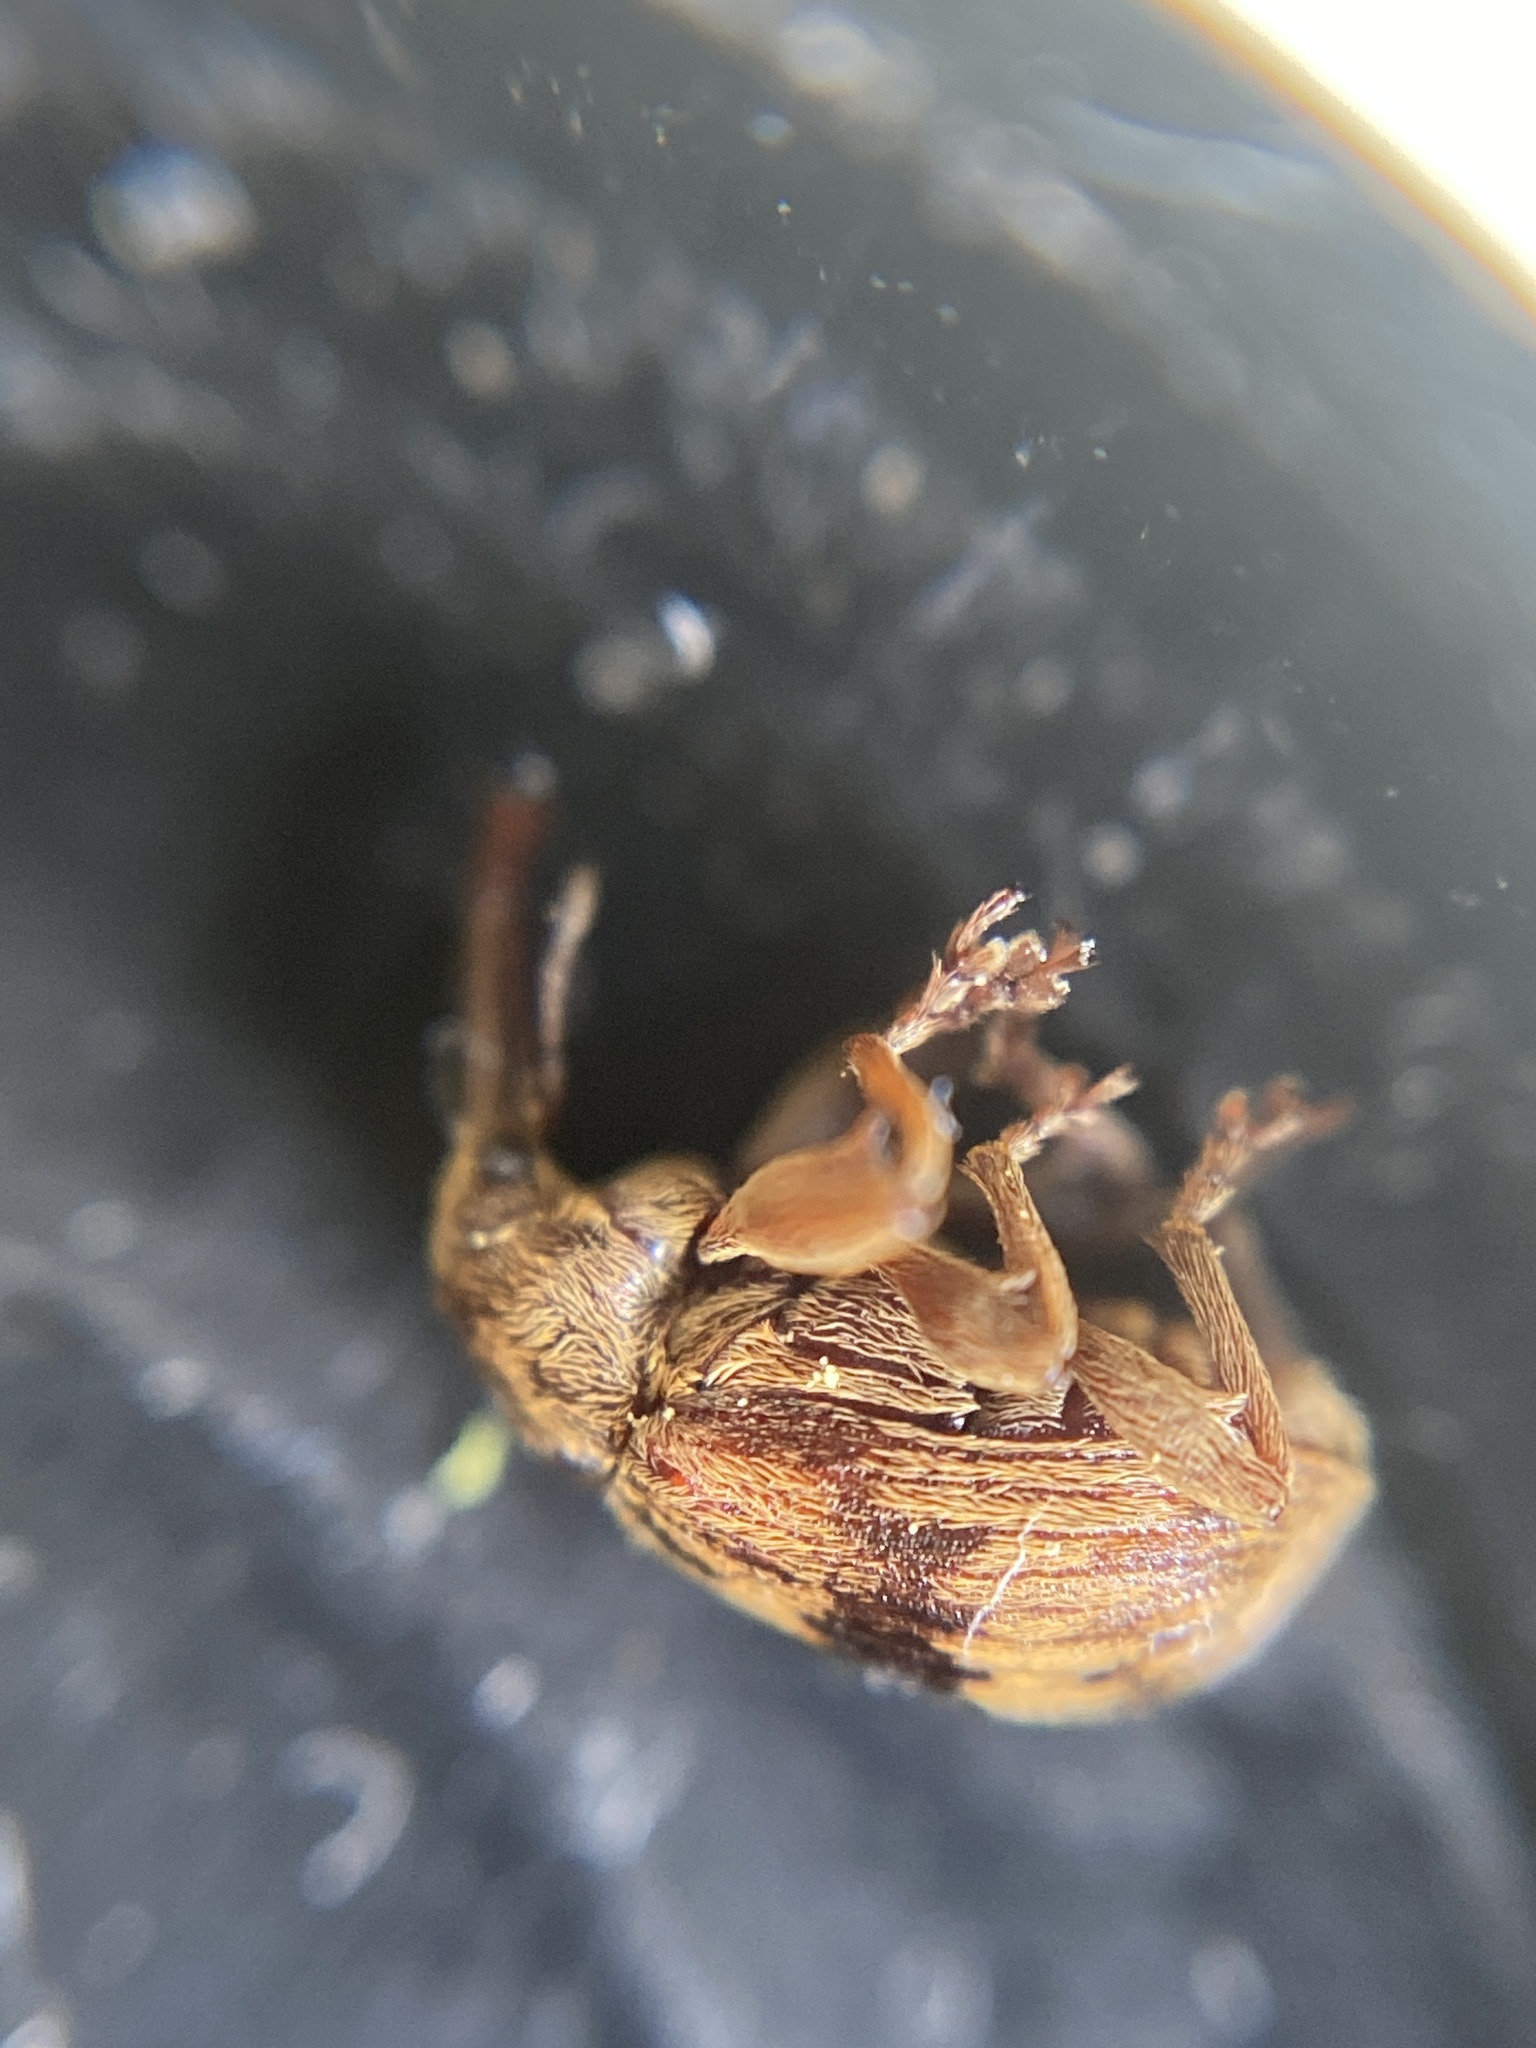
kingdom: Animalia
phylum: Arthropoda
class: Insecta
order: Coleoptera
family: Curculionidae
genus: Anthonomus
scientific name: Anthonomus rectirostris
